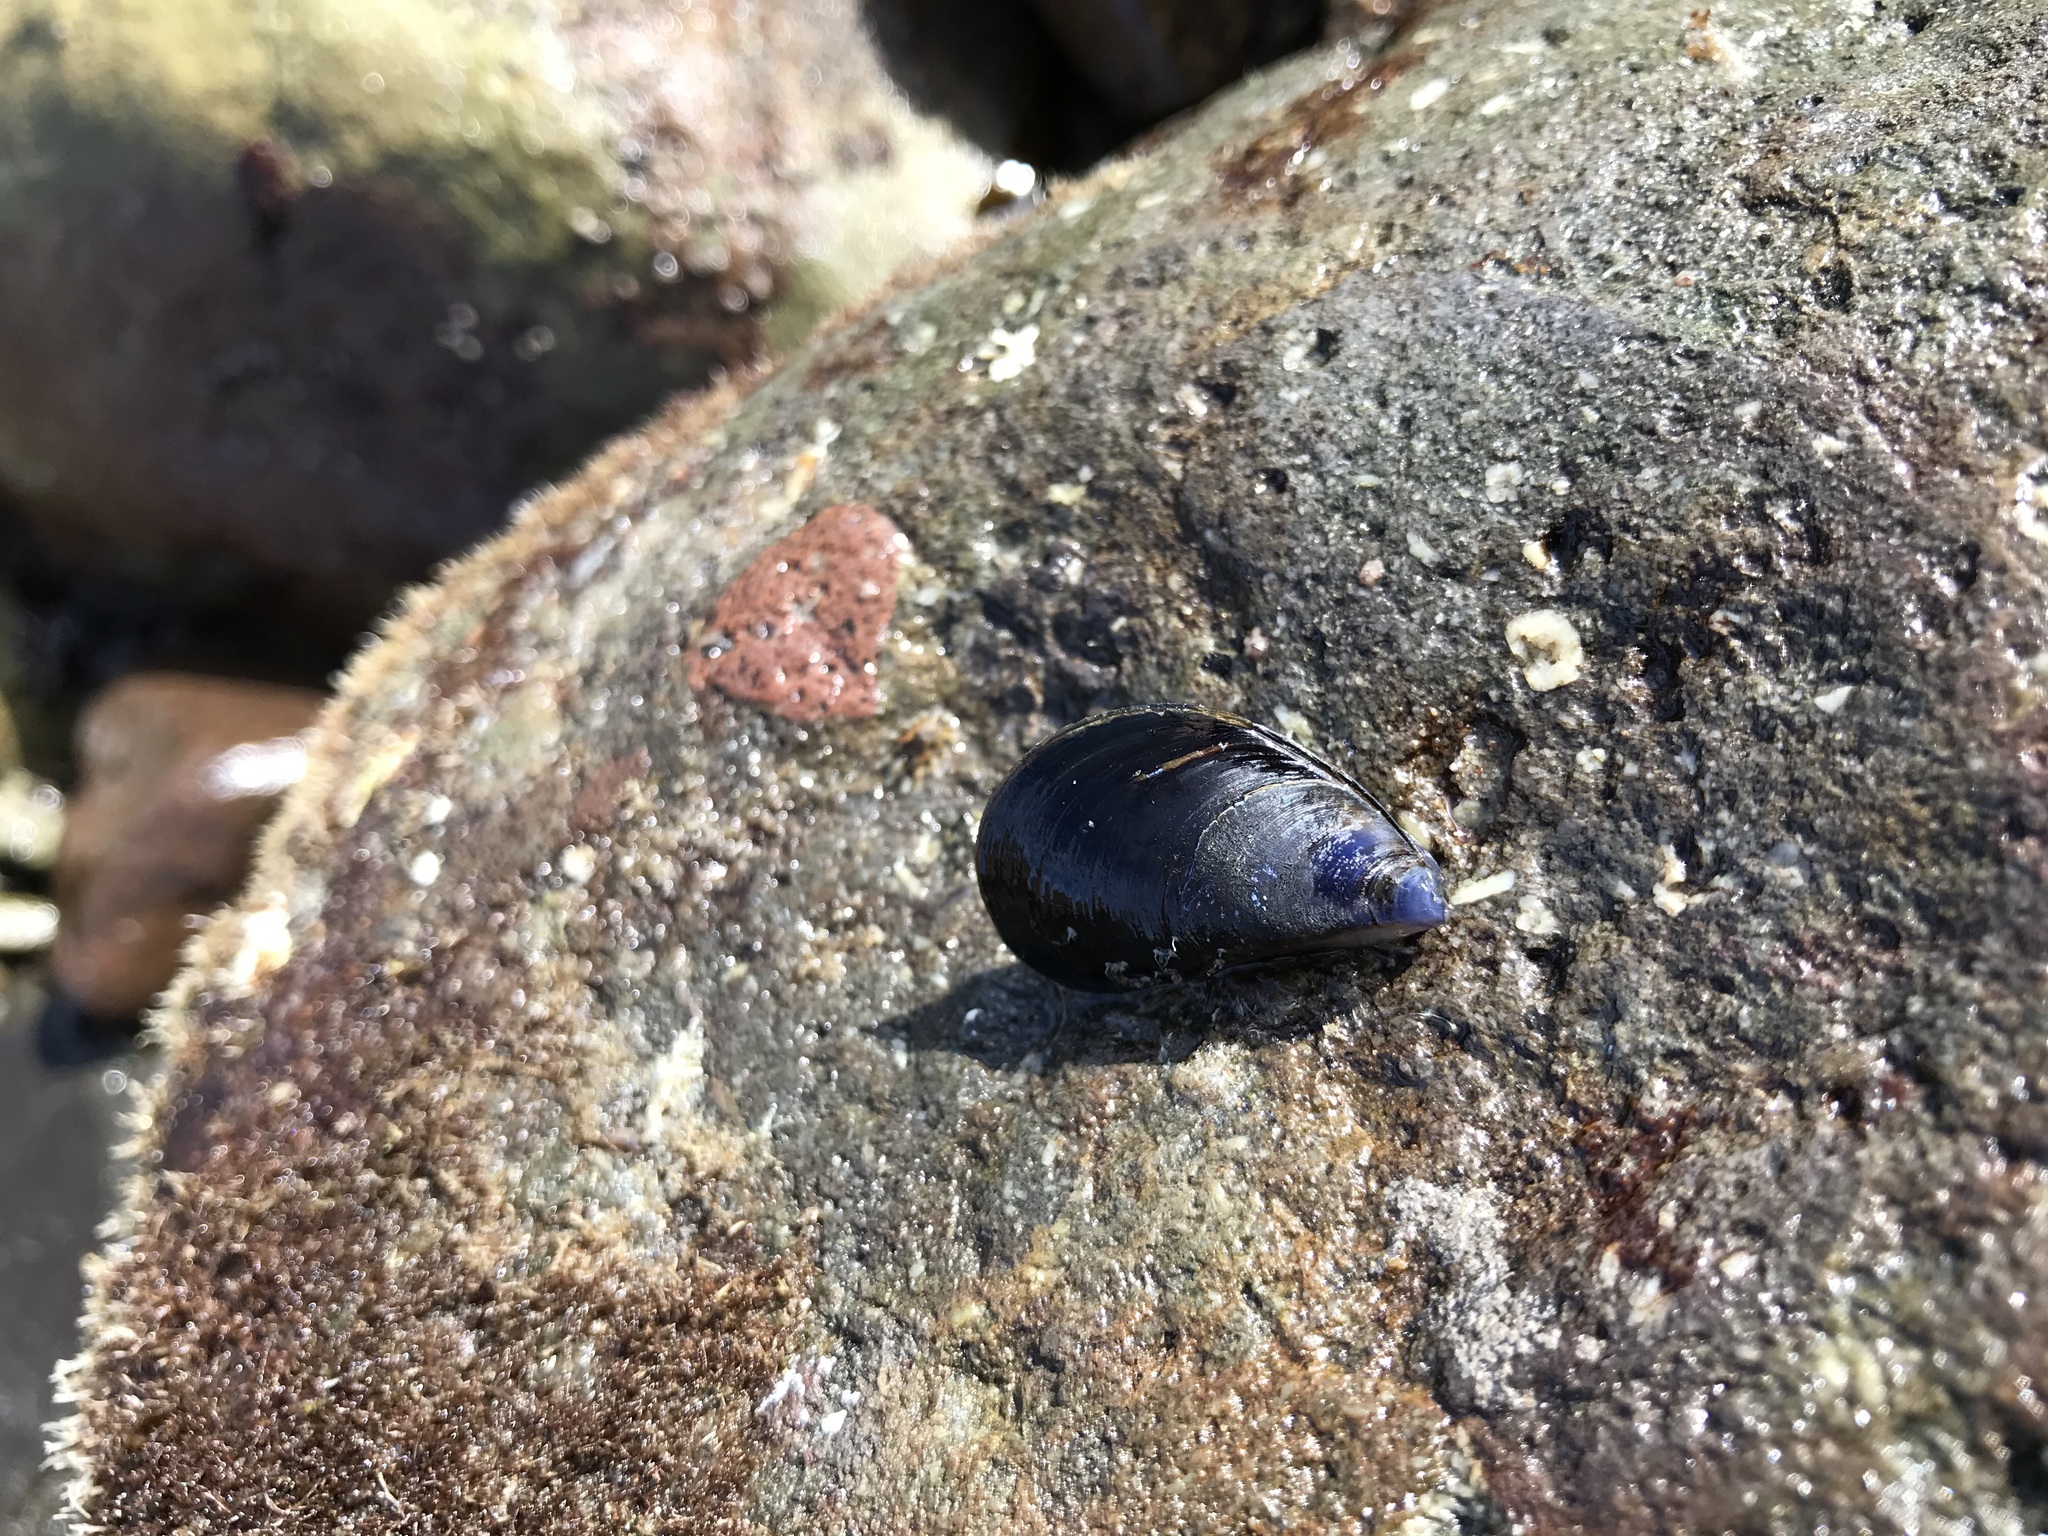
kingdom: Animalia
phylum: Mollusca
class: Bivalvia
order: Mytilida
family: Mytilidae
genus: Mytilus
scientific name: Mytilus
